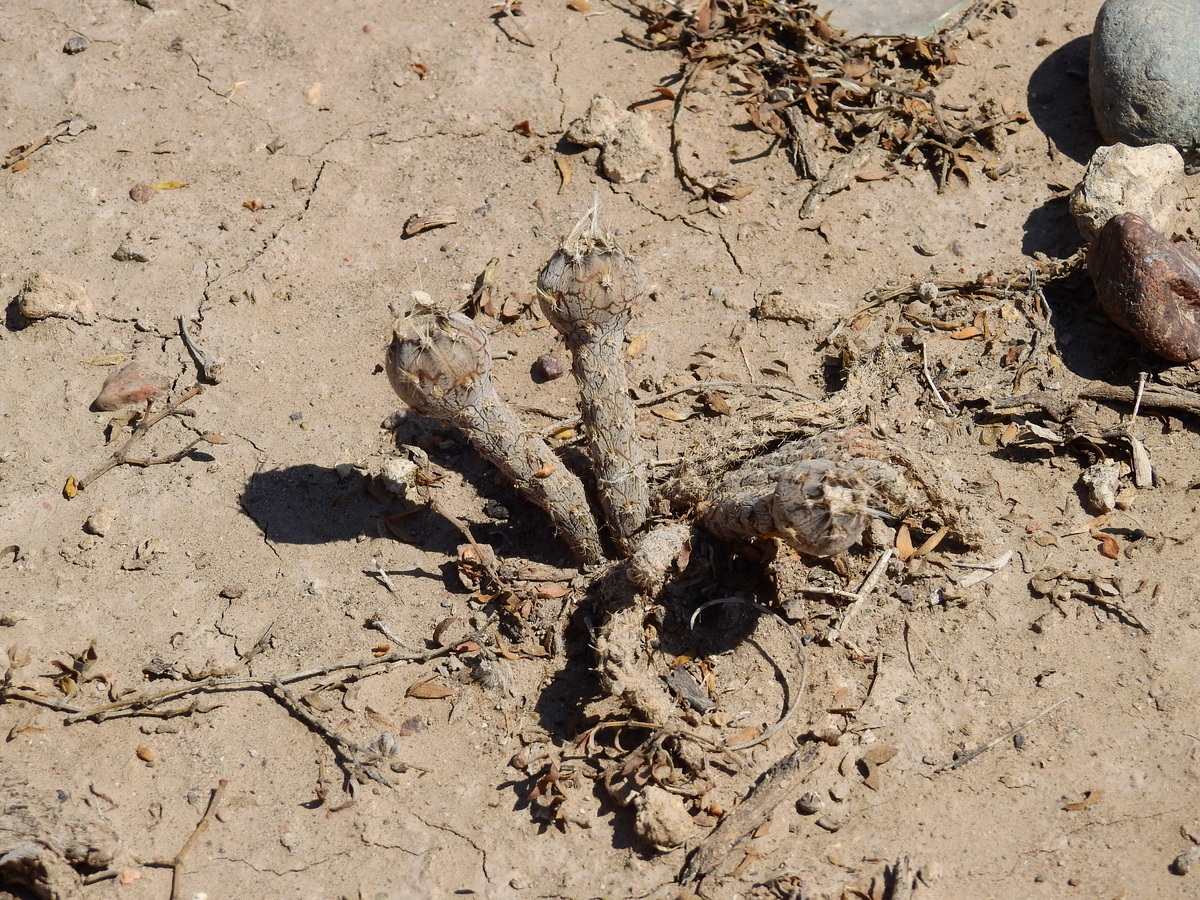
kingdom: Plantae
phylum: Tracheophyta
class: Magnoliopsida
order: Caryophyllales
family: Cactaceae
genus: Pterocactus
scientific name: Pterocactus tuberosus
